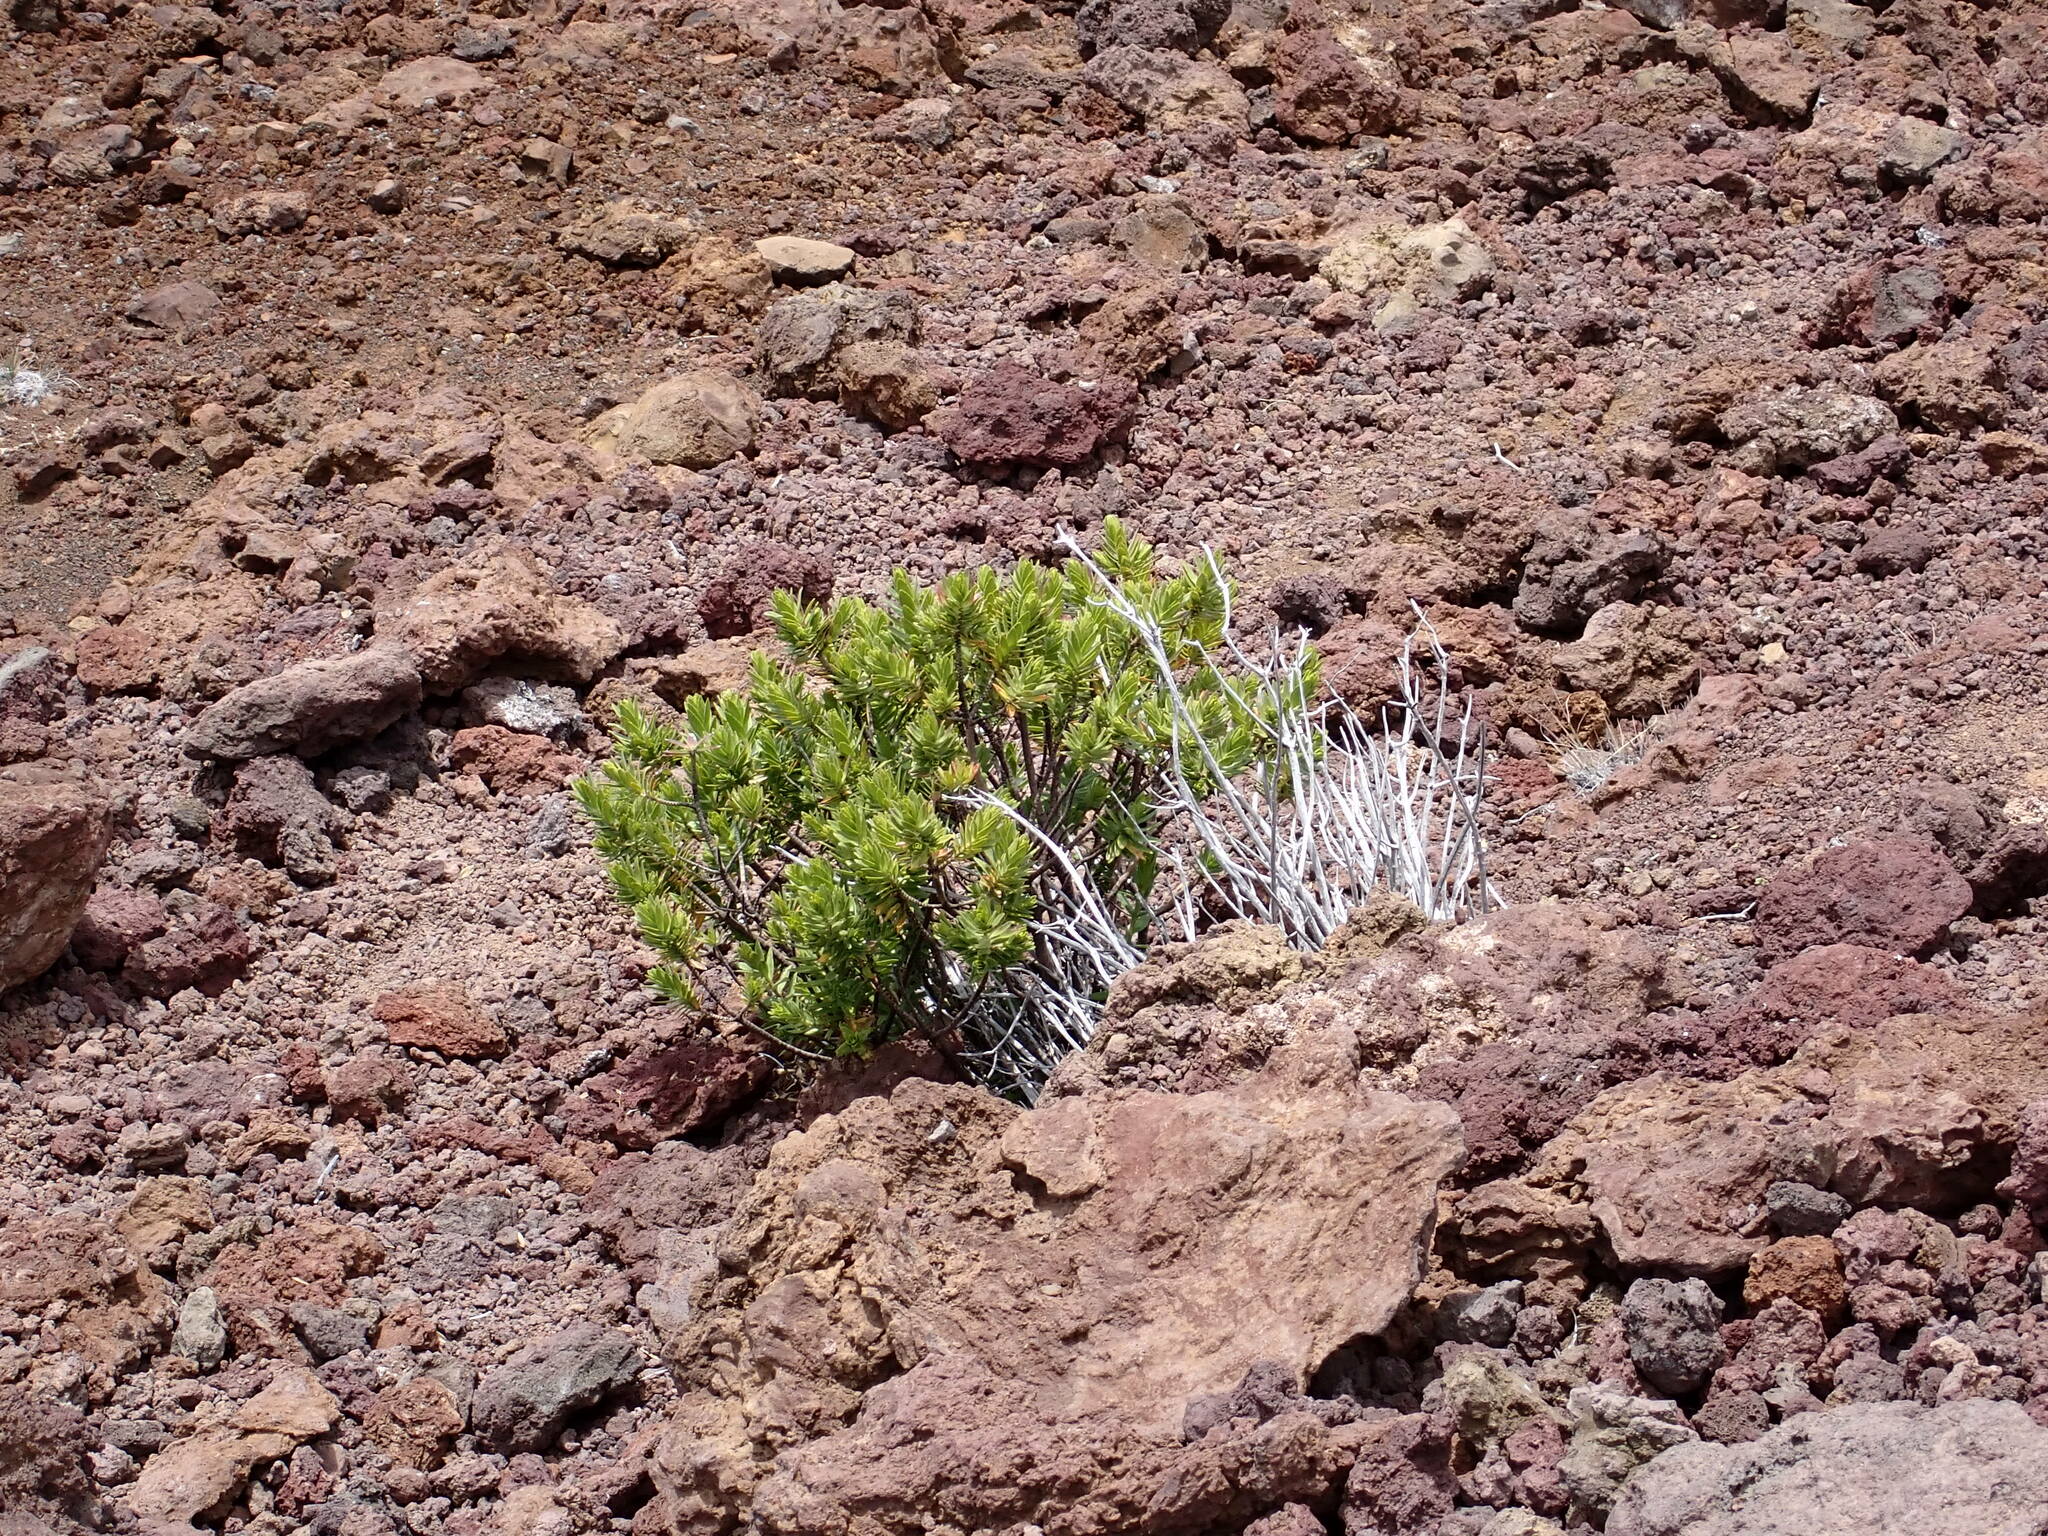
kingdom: Plantae
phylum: Tracheophyta
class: Magnoliopsida
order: Asterales
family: Asteraceae
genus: Dubautia
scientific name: Dubautia menziesii
